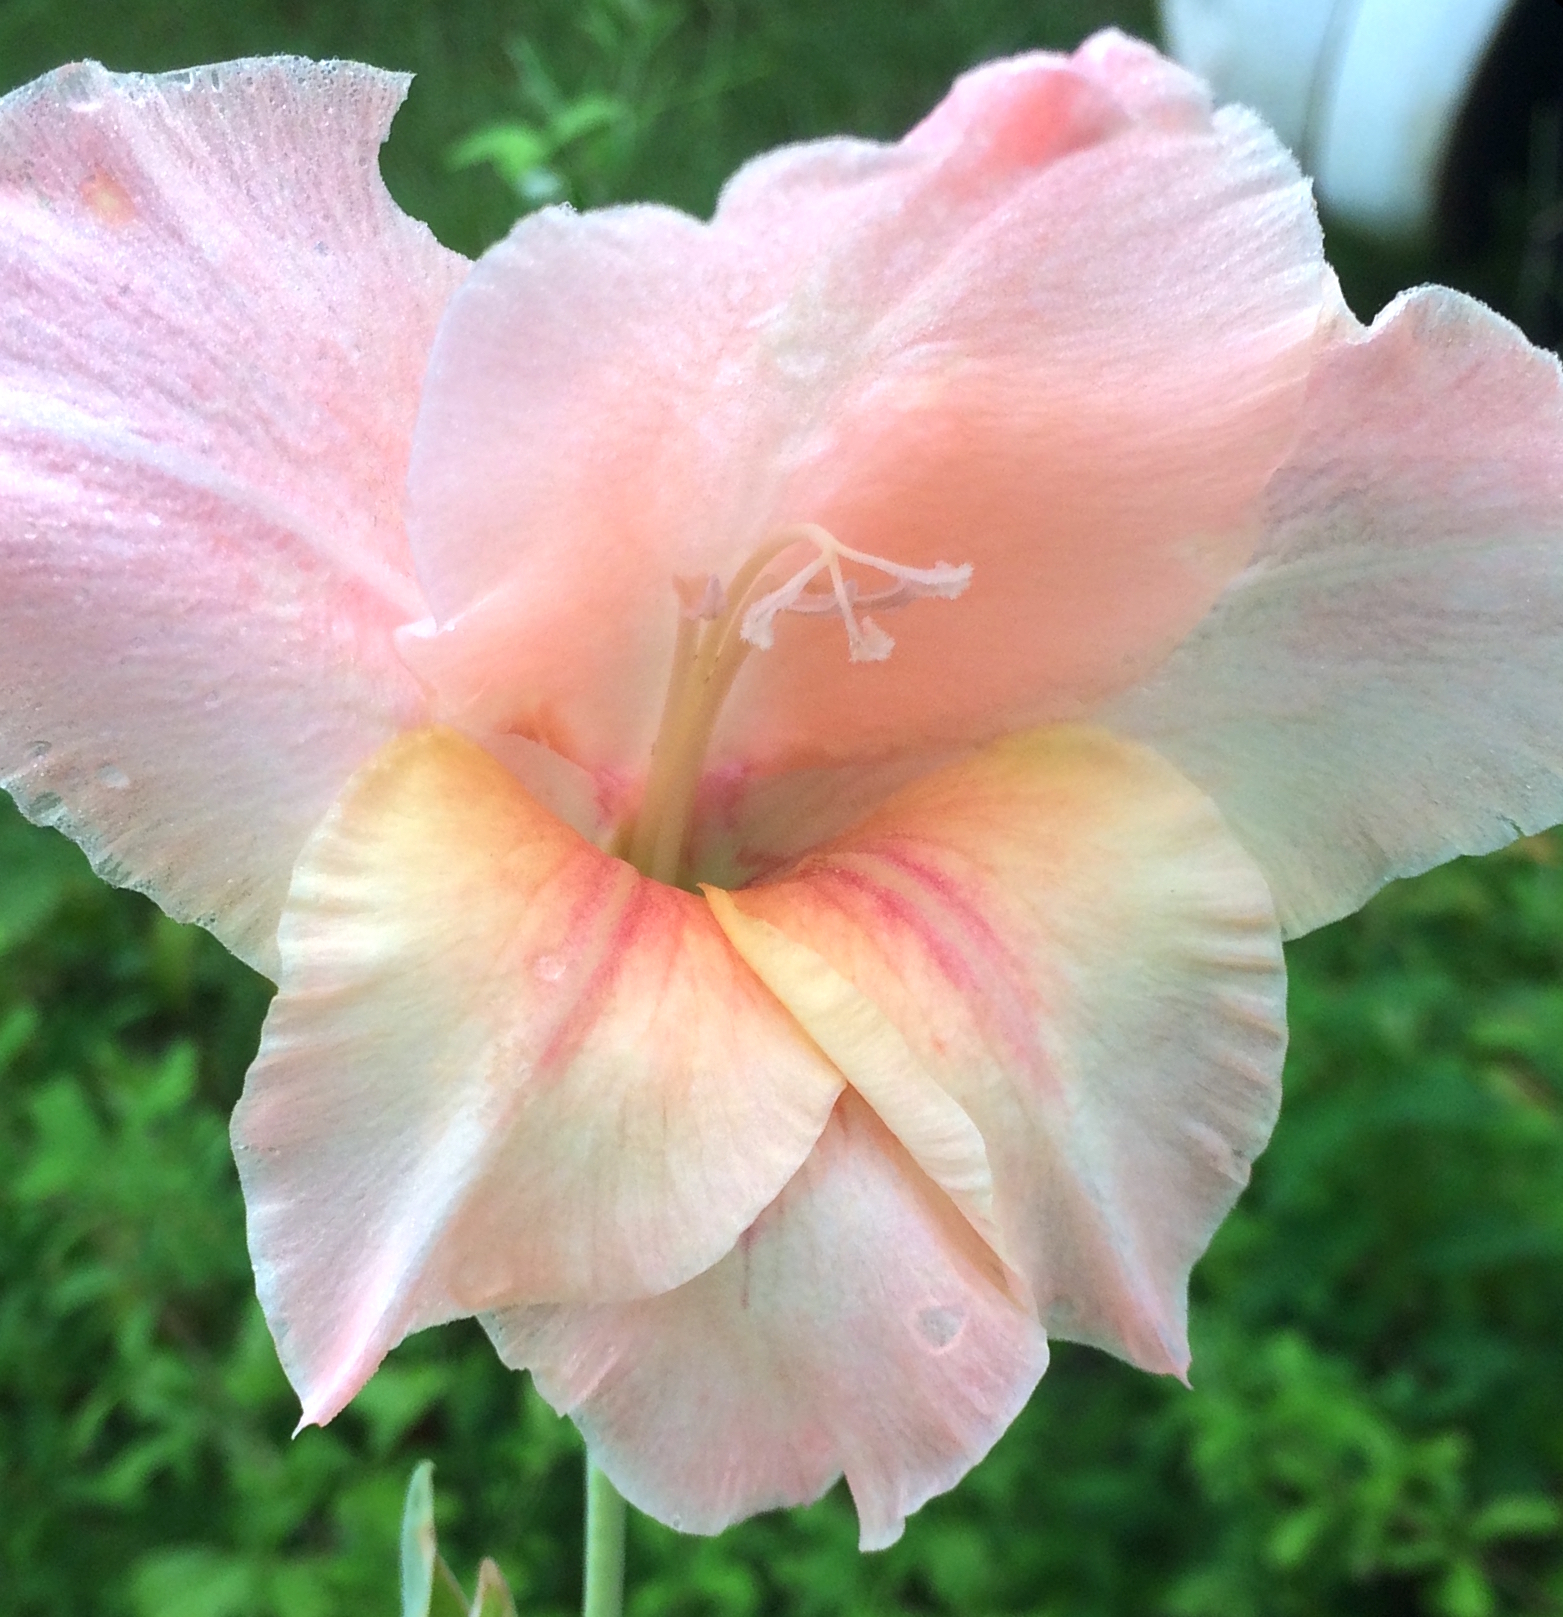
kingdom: Plantae
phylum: Tracheophyta
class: Liliopsida
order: Asparagales
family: Iridaceae
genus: Gladiolus
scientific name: Gladiolus hortulanus
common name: Large-flowered gladiolus
